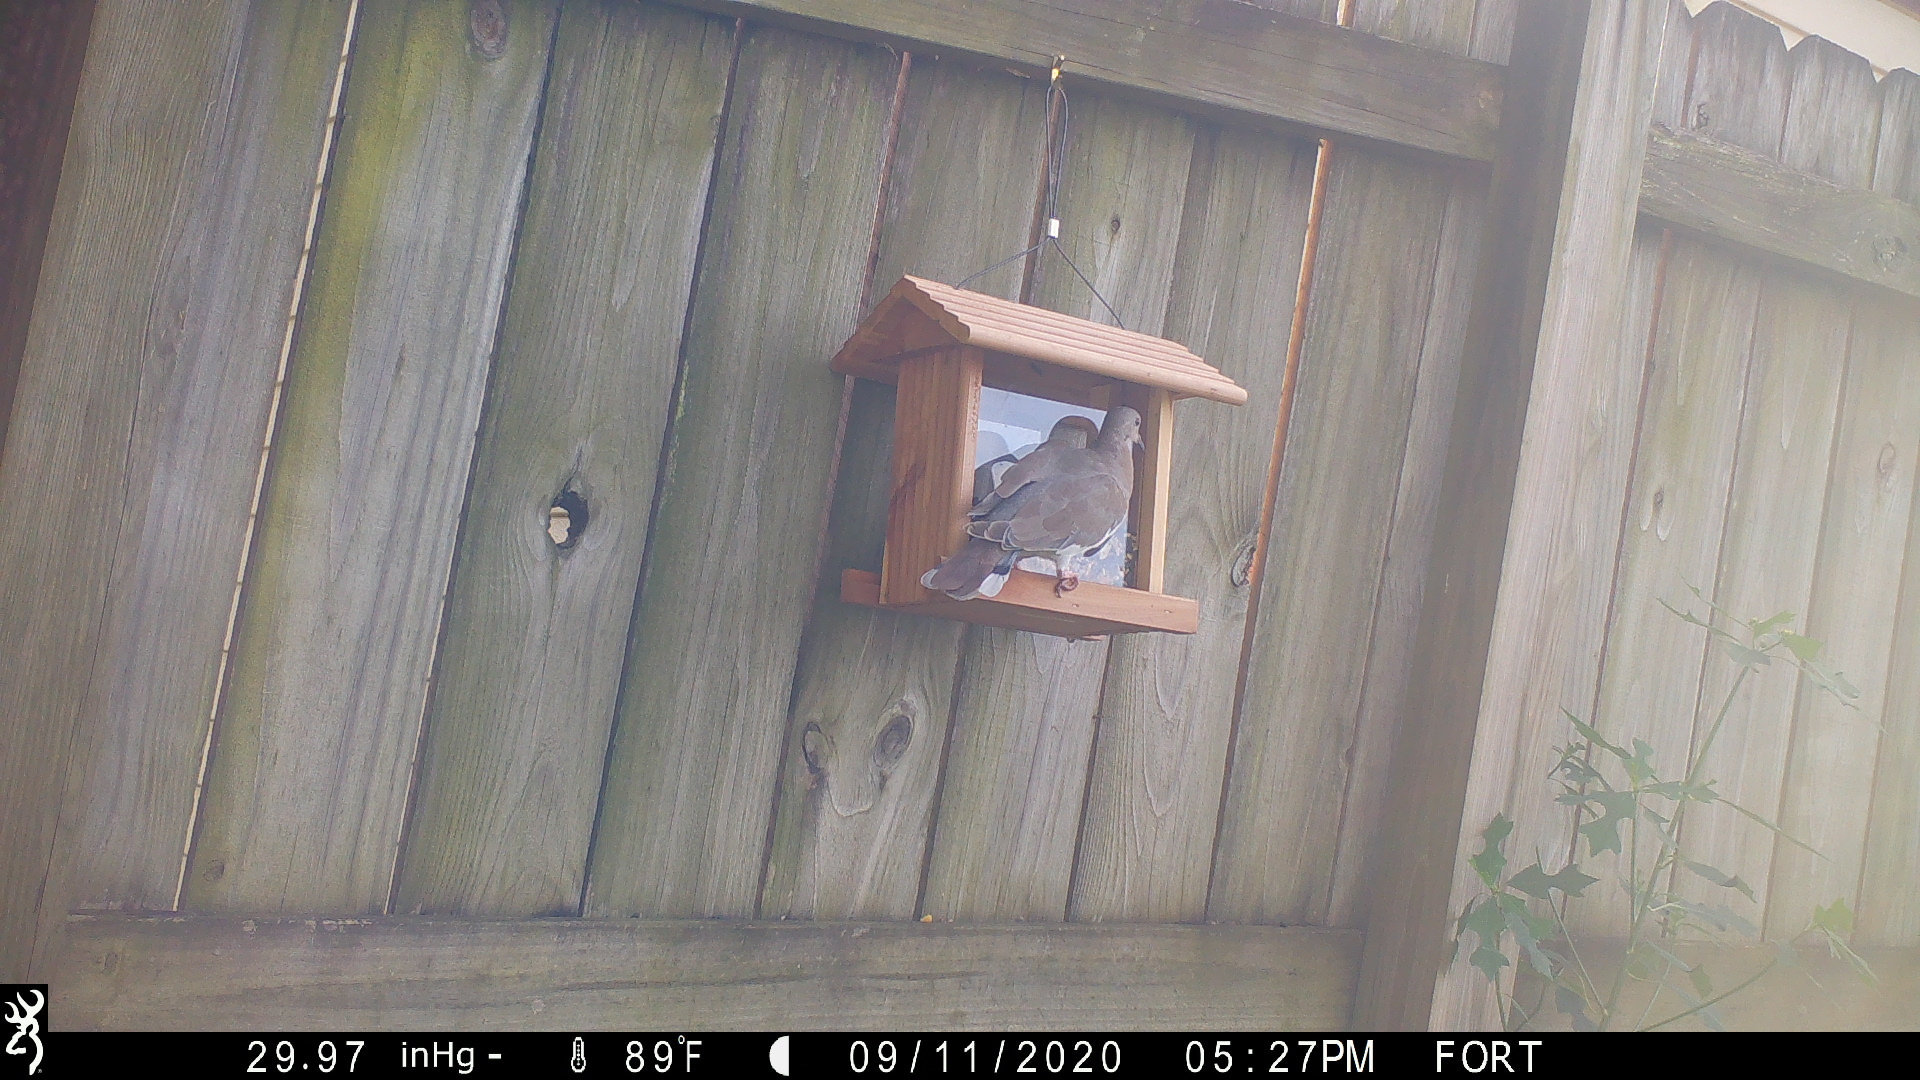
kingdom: Animalia
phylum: Chordata
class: Aves
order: Columbiformes
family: Columbidae
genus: Zenaida
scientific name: Zenaida asiatica
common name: White-winged dove
